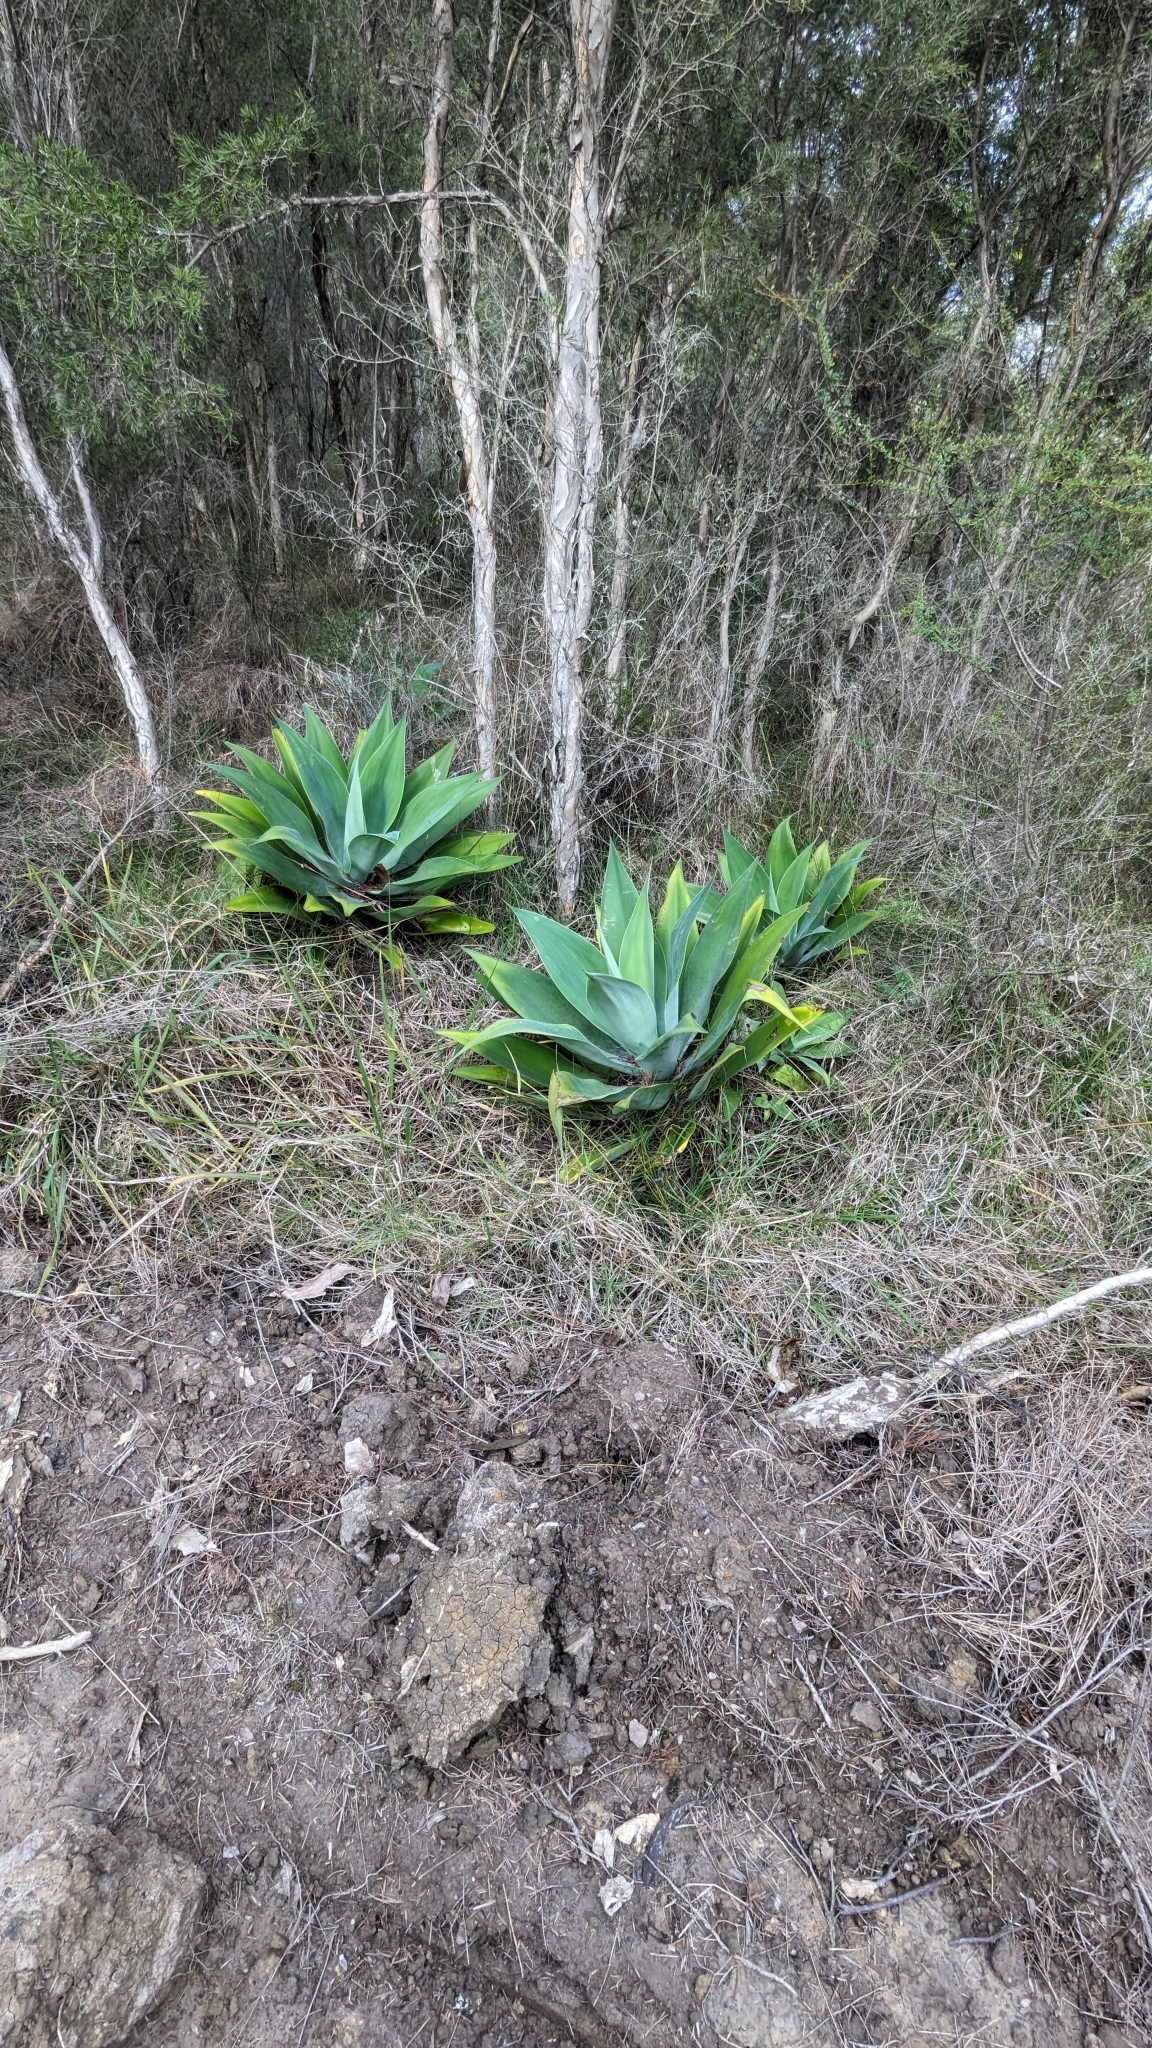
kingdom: Plantae
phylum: Tracheophyta
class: Liliopsida
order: Asparagales
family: Asparagaceae
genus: Agave
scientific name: Agave attenuata
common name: Fox tail agave
